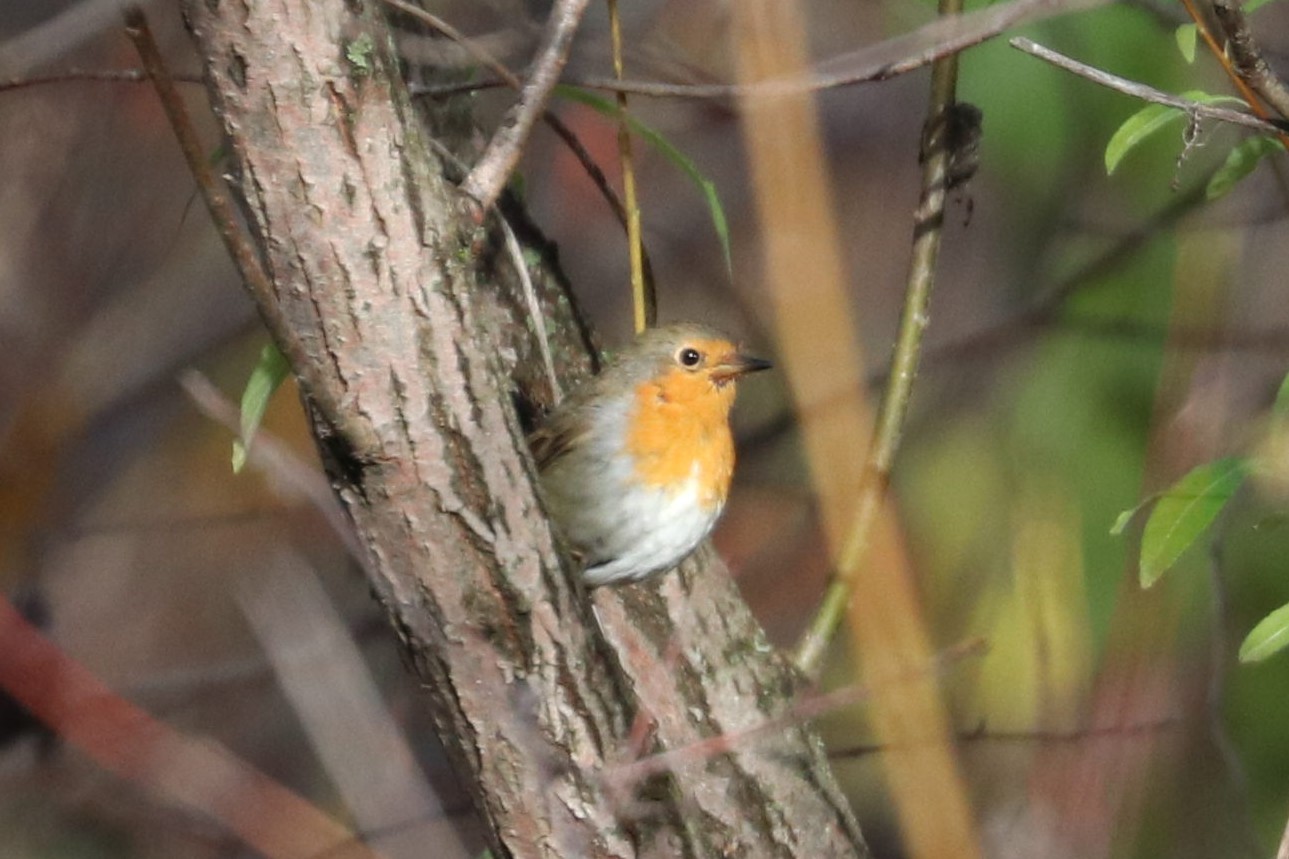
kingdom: Animalia
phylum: Chordata
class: Aves
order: Passeriformes
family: Muscicapidae
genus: Erithacus
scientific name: Erithacus rubecula
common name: European robin
